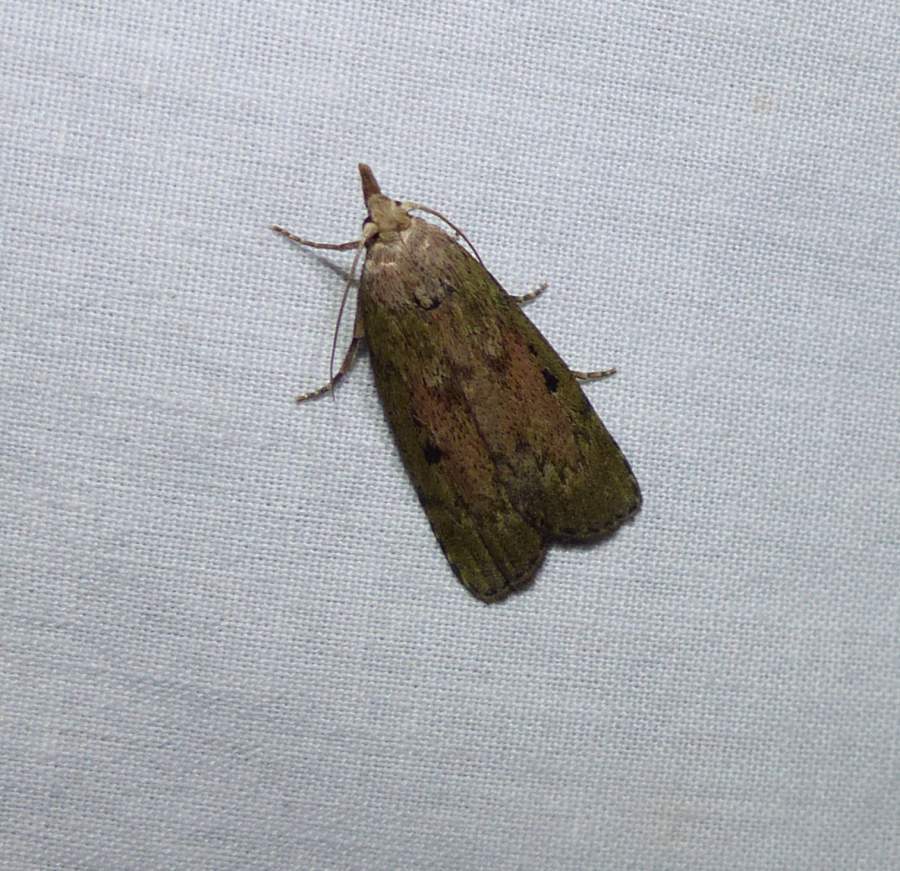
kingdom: Animalia
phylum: Arthropoda
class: Insecta
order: Lepidoptera
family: Pyralidae
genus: Aphomia
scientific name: Aphomia sociella
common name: Bee moth
